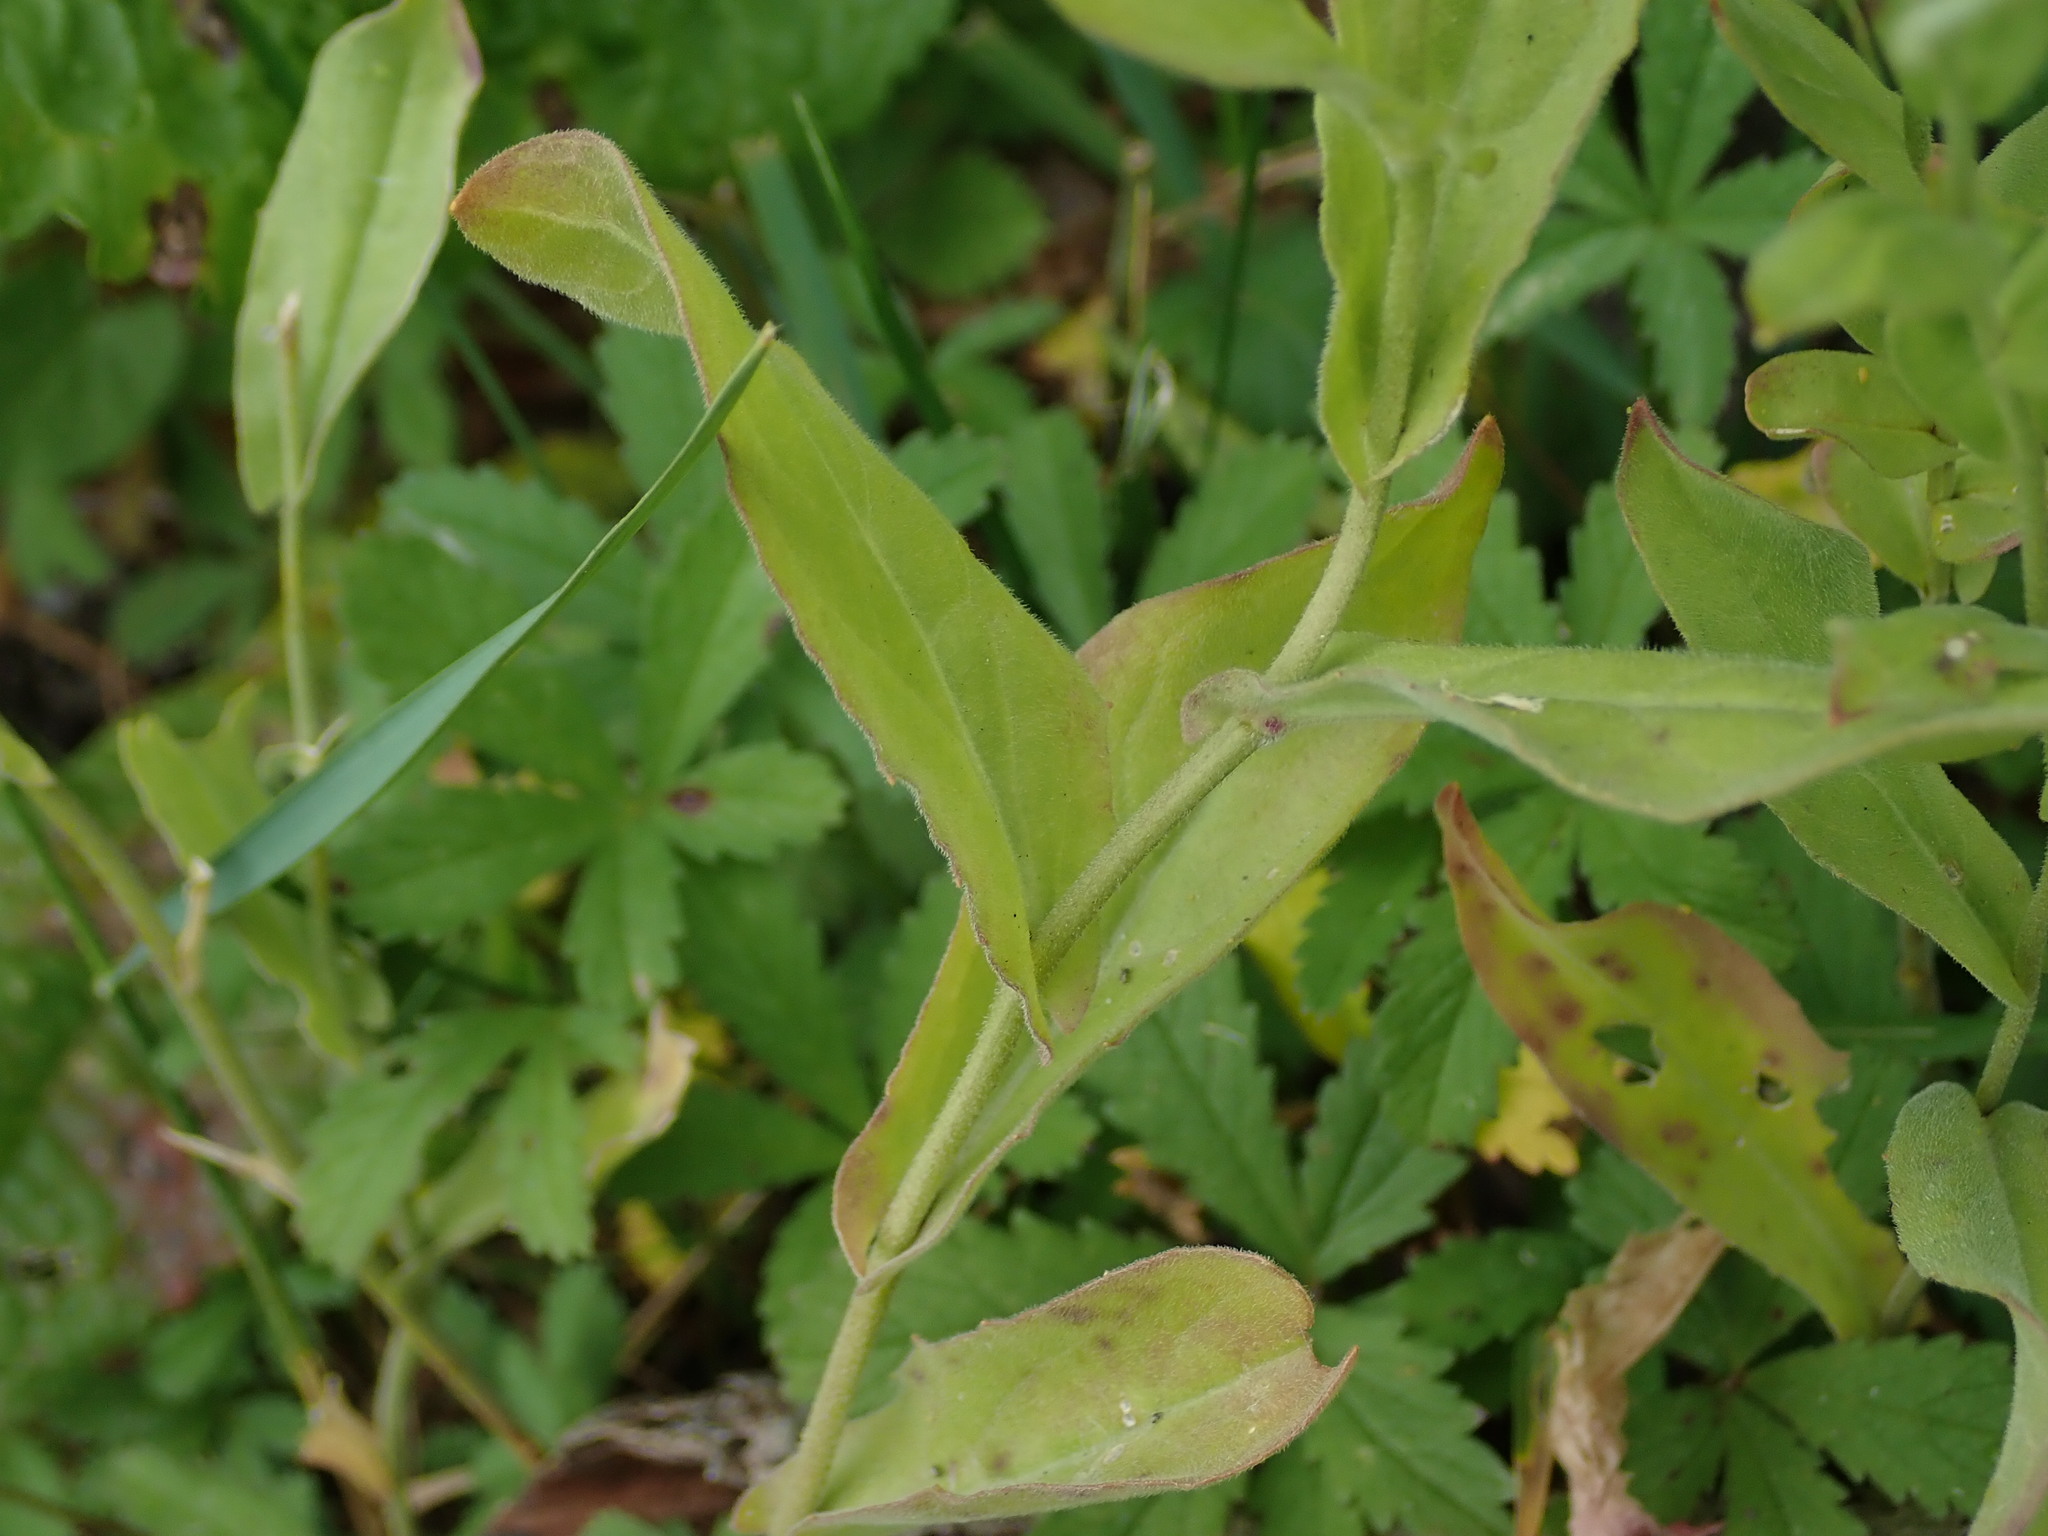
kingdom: Plantae
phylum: Tracheophyta
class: Magnoliopsida
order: Brassicales
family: Brassicaceae
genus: Lepidium
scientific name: Lepidium draba
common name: Hoary cress
